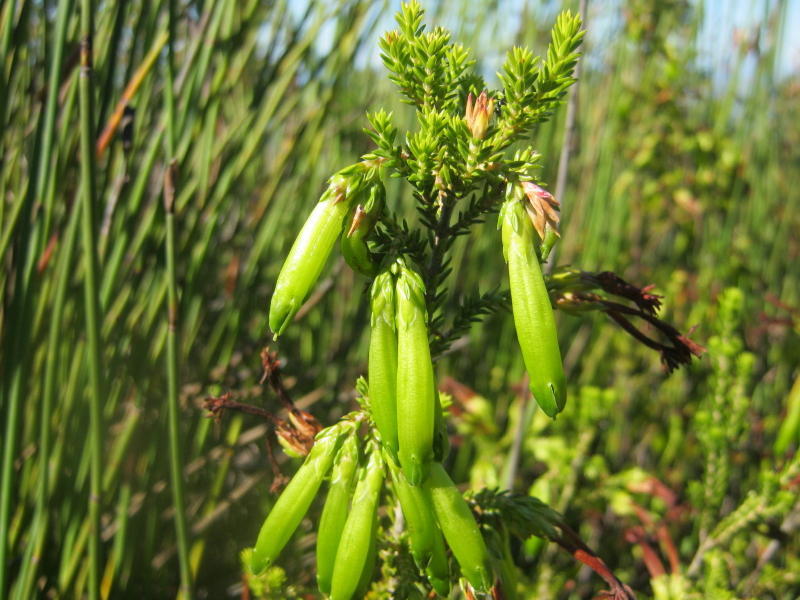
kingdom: Plantae
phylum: Tracheophyta
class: Magnoliopsida
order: Ericales
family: Ericaceae
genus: Erica
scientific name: Erica viridiflora
